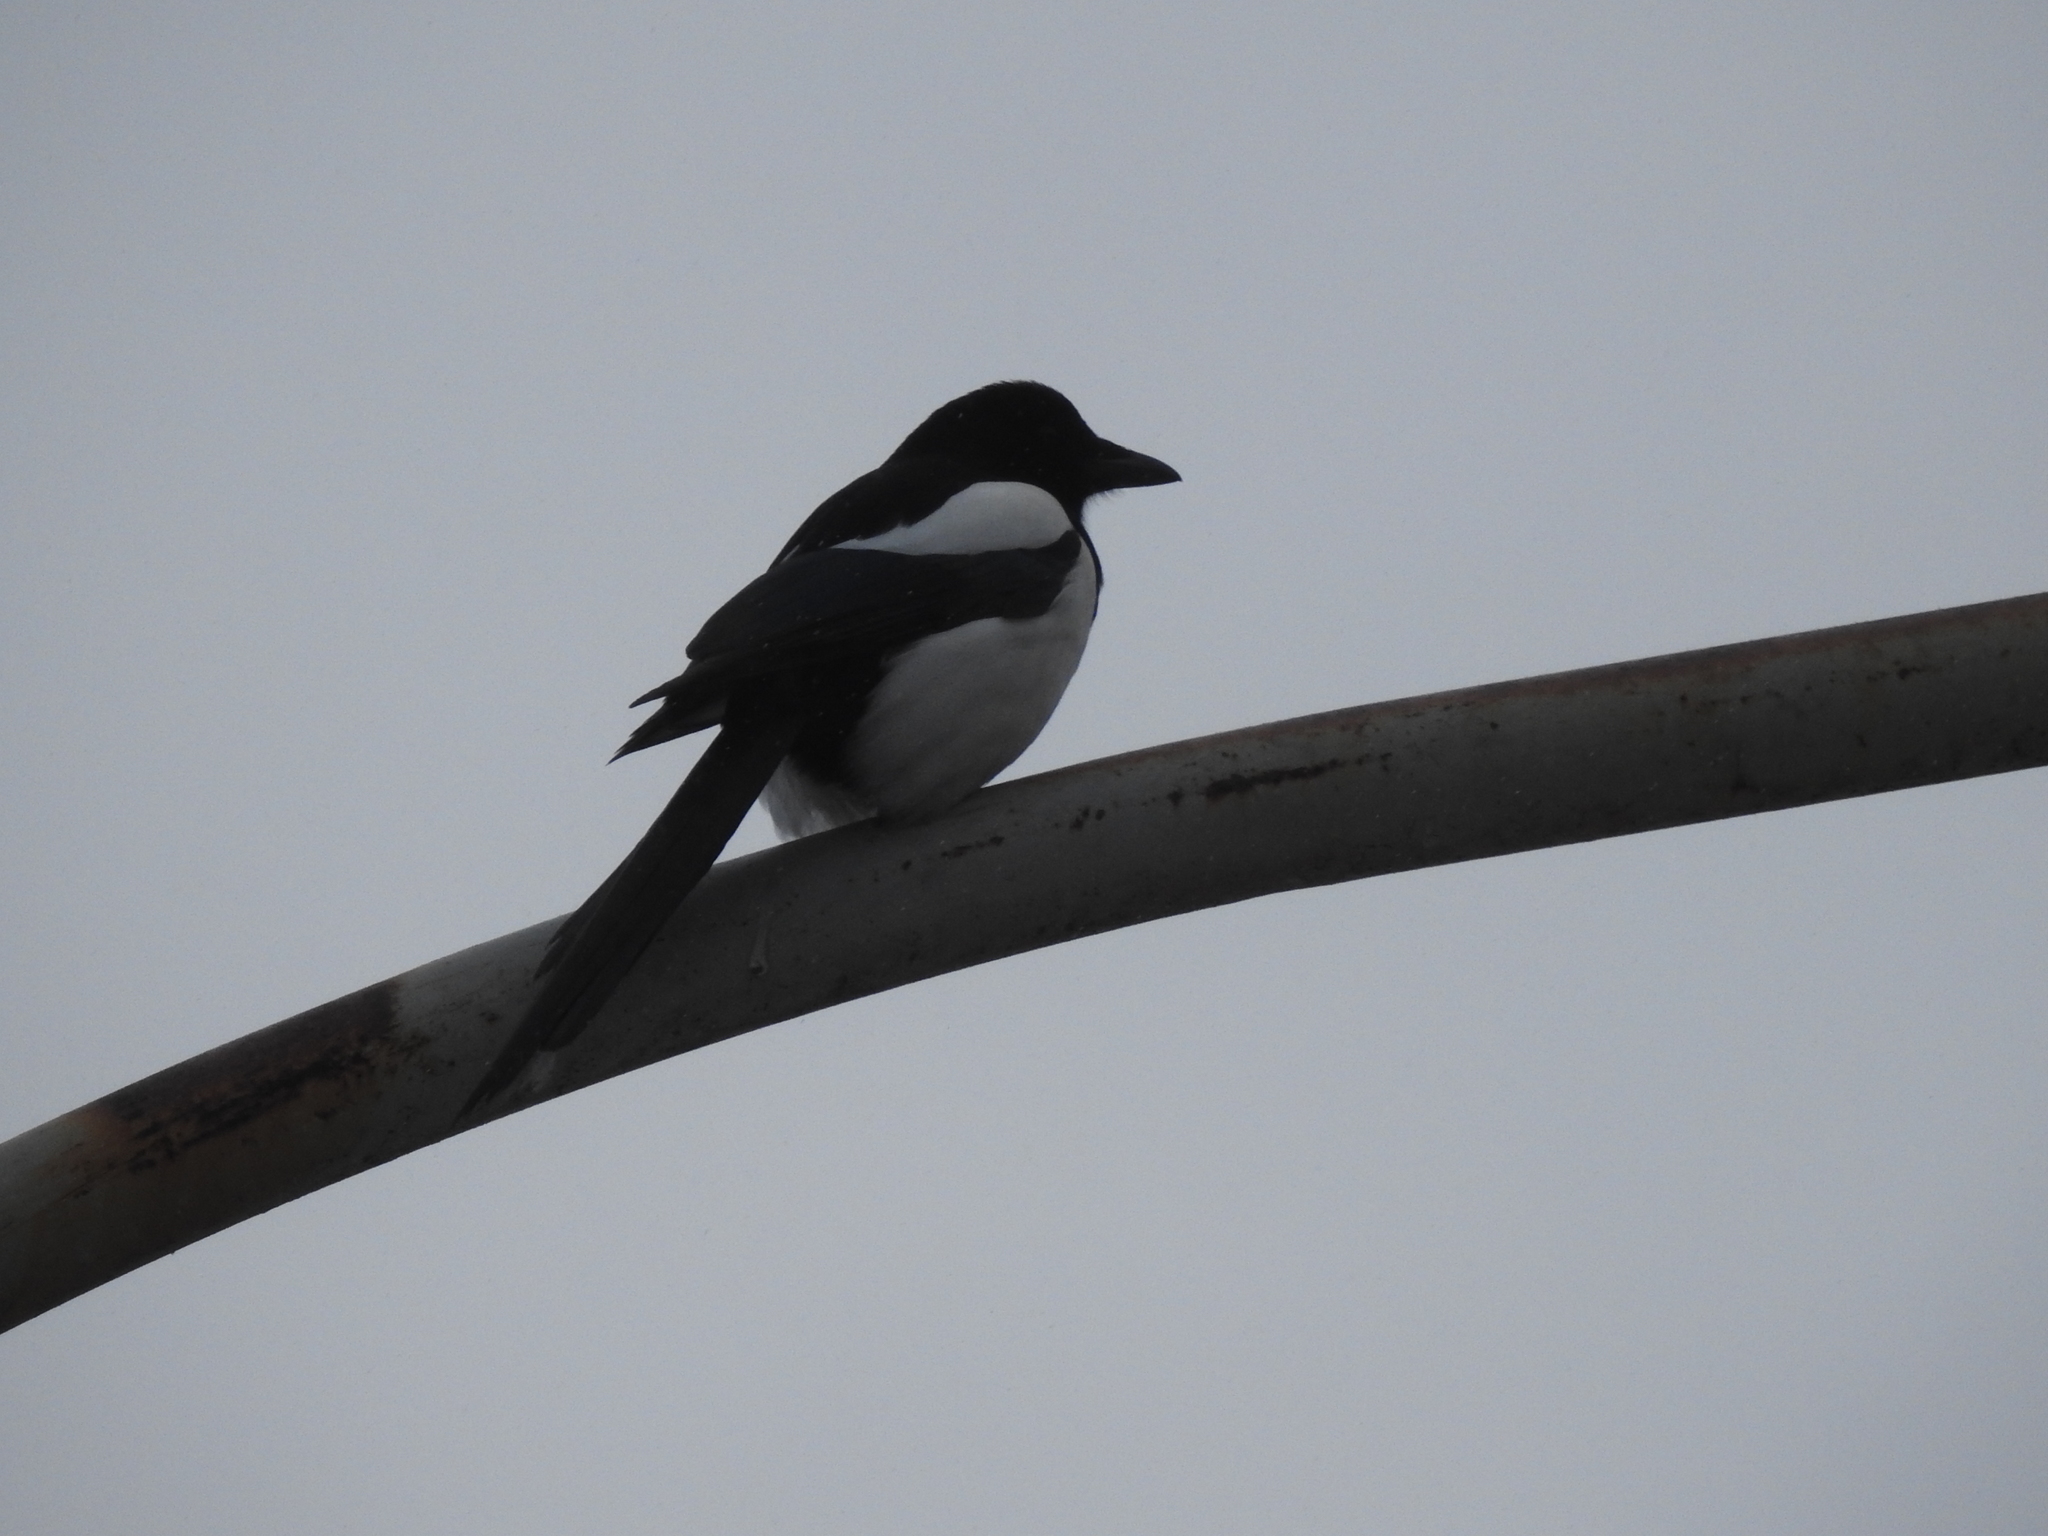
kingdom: Animalia
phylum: Chordata
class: Aves
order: Passeriformes
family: Corvidae
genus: Pica
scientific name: Pica pica
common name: Eurasian magpie
